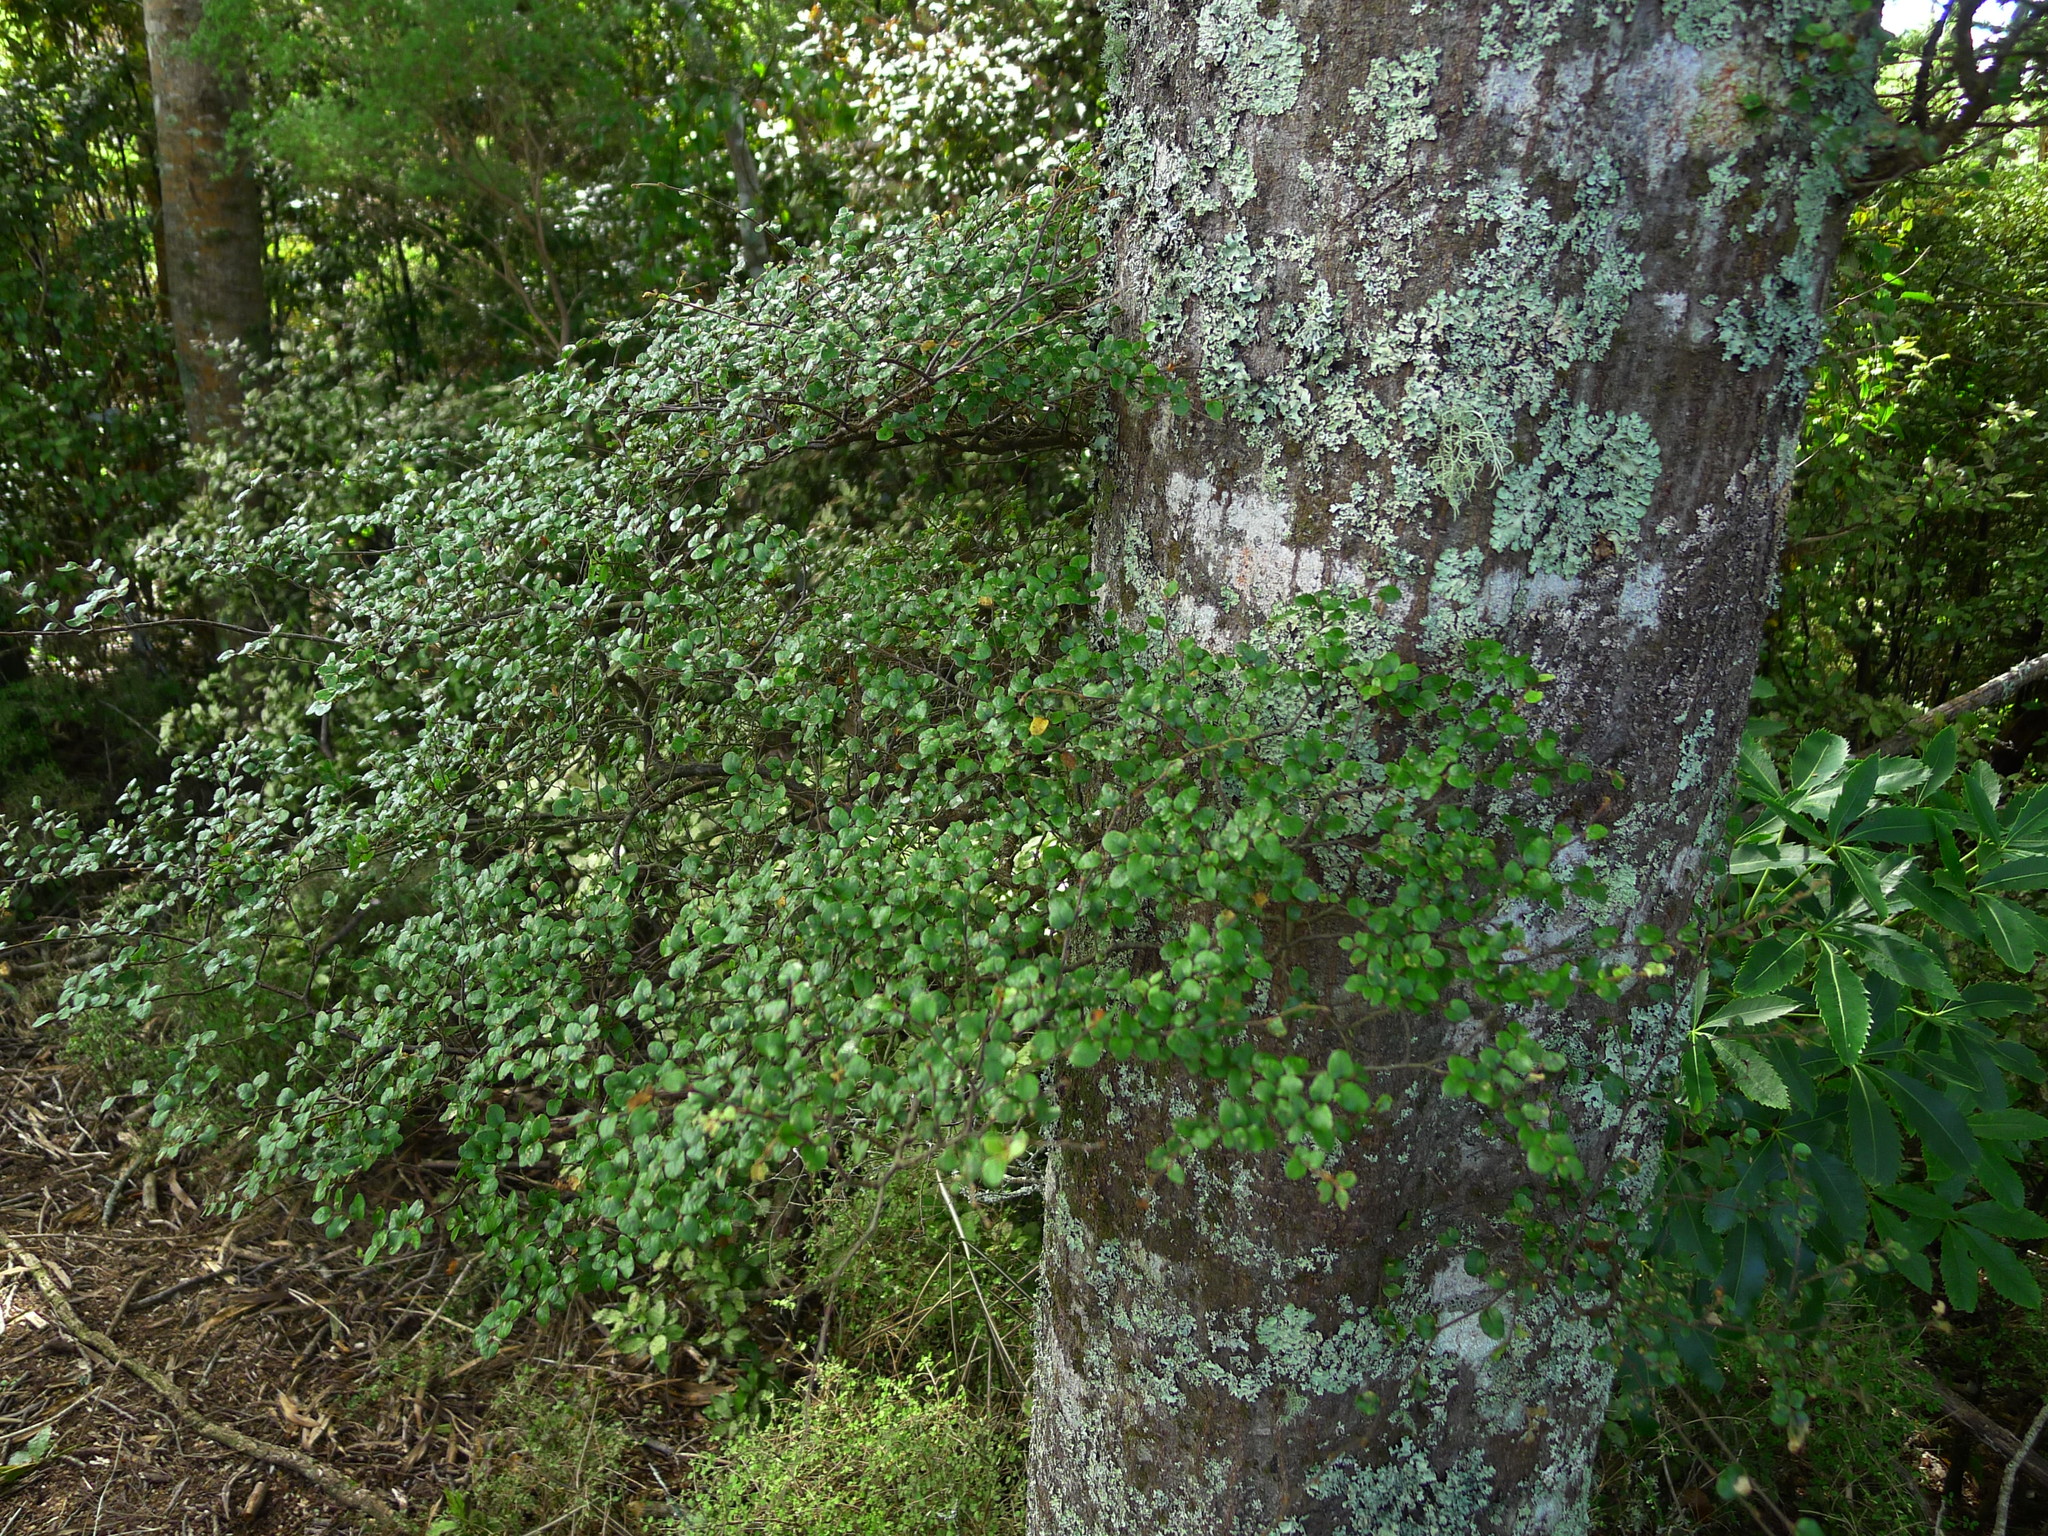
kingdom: Plantae
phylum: Tracheophyta
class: Magnoliopsida
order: Fagales
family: Nothofagaceae
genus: Nothofagus
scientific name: Nothofagus solandri
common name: Black beech
